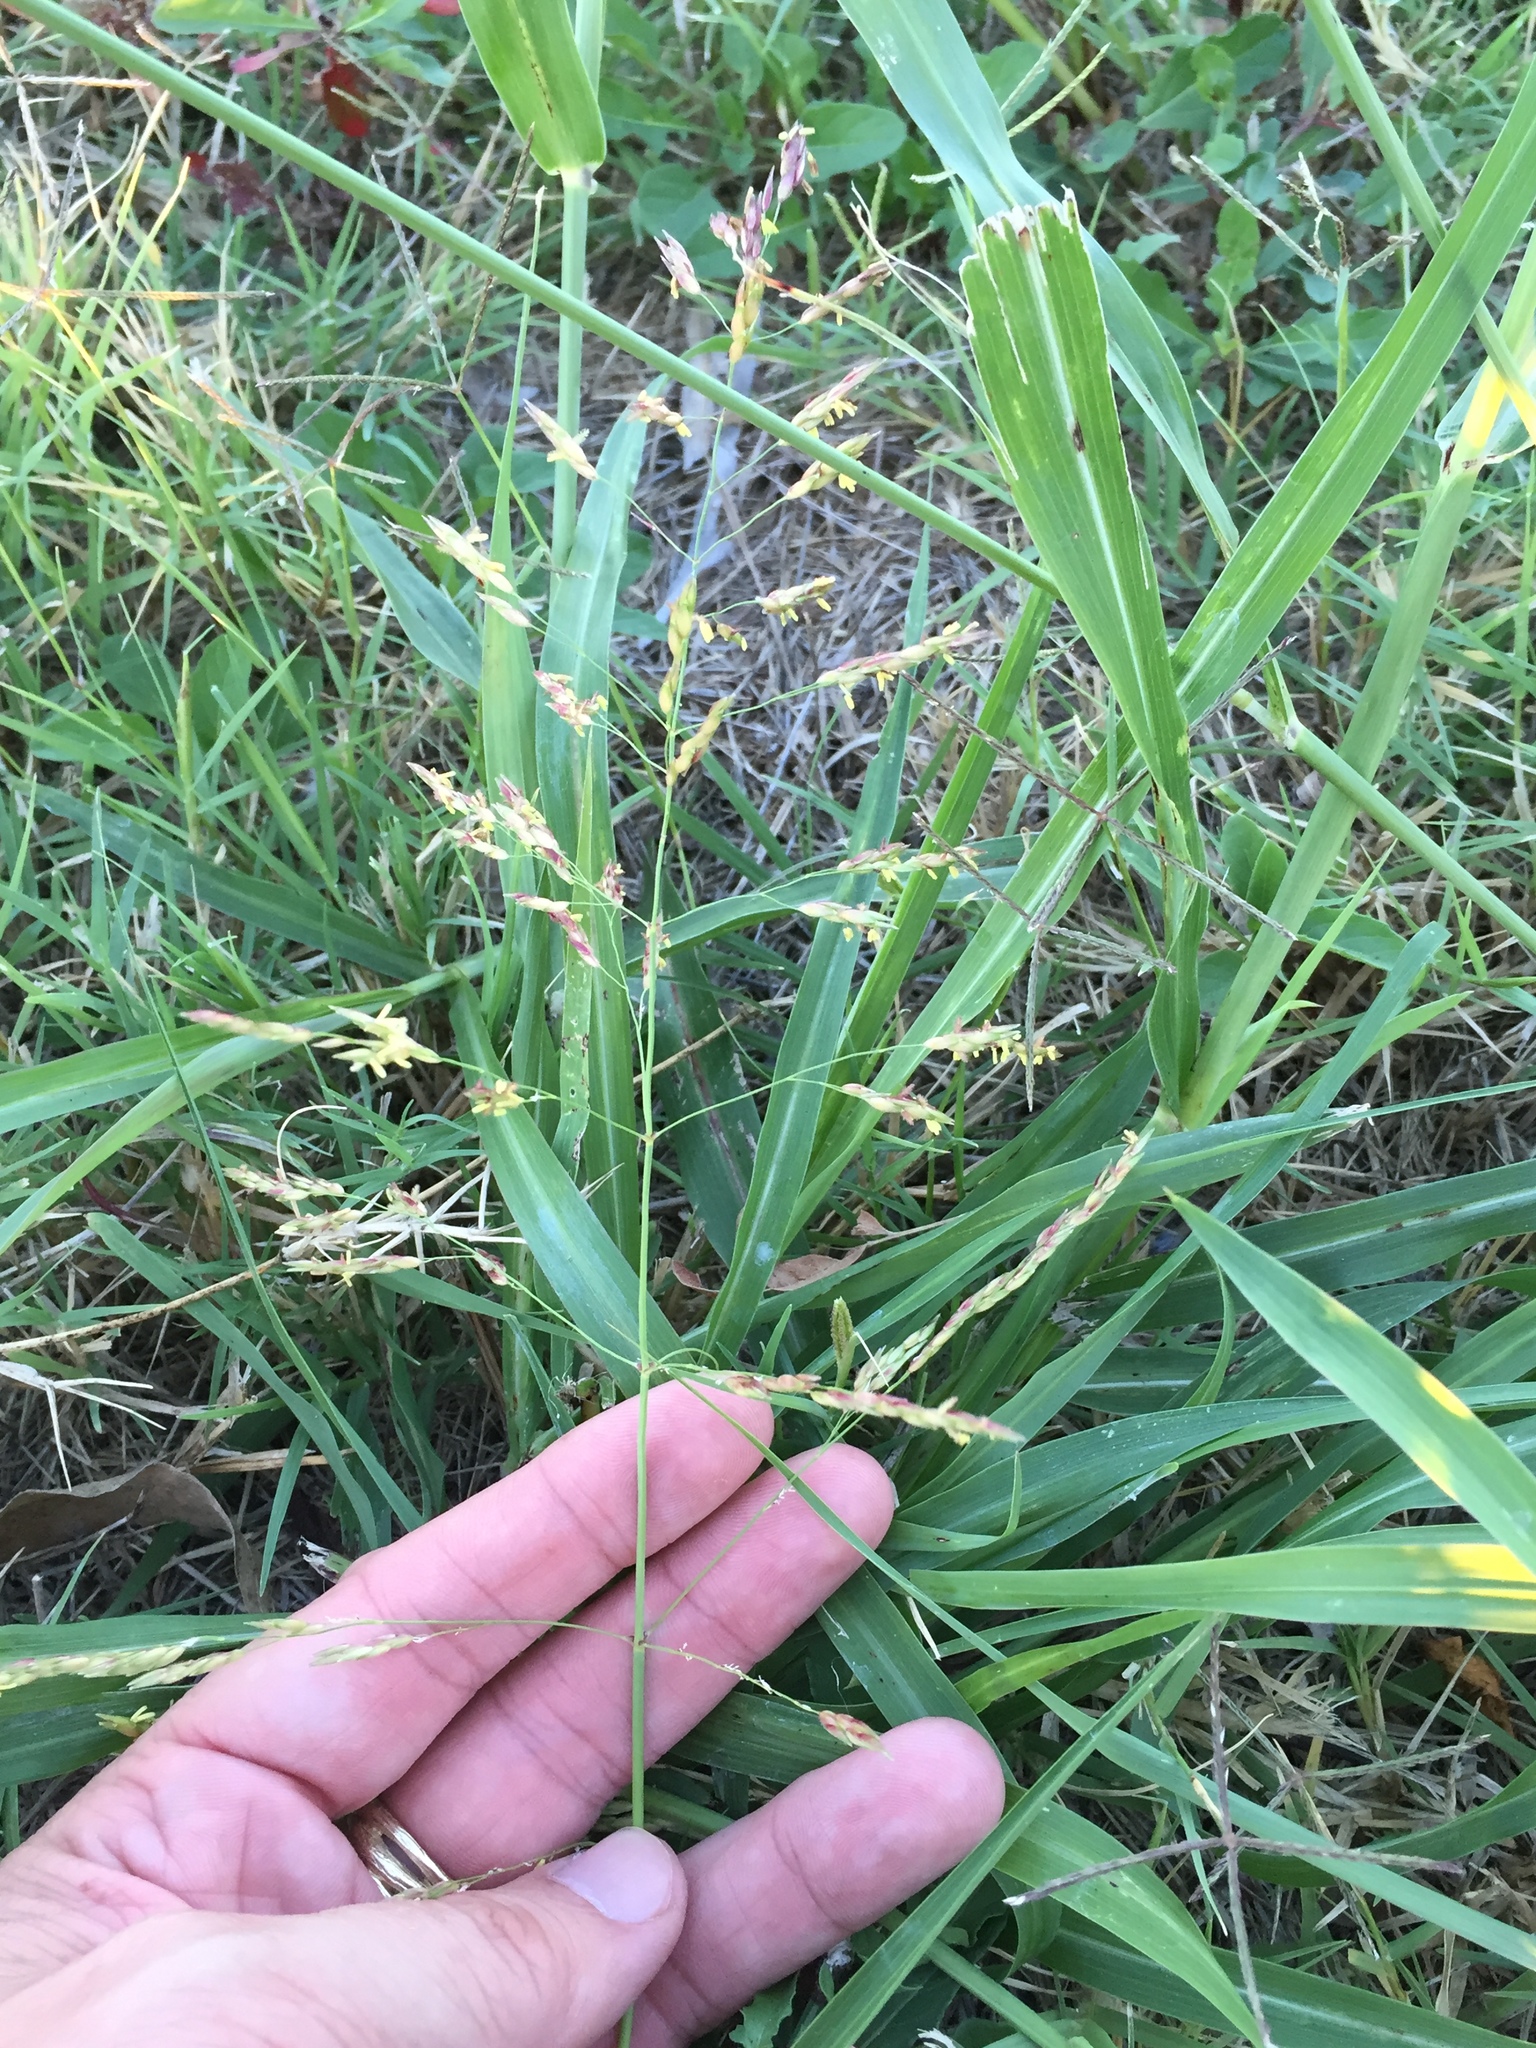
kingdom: Plantae
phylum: Tracheophyta
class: Liliopsida
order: Poales
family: Poaceae
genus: Sorghum
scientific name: Sorghum halepense
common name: Johnson-grass
